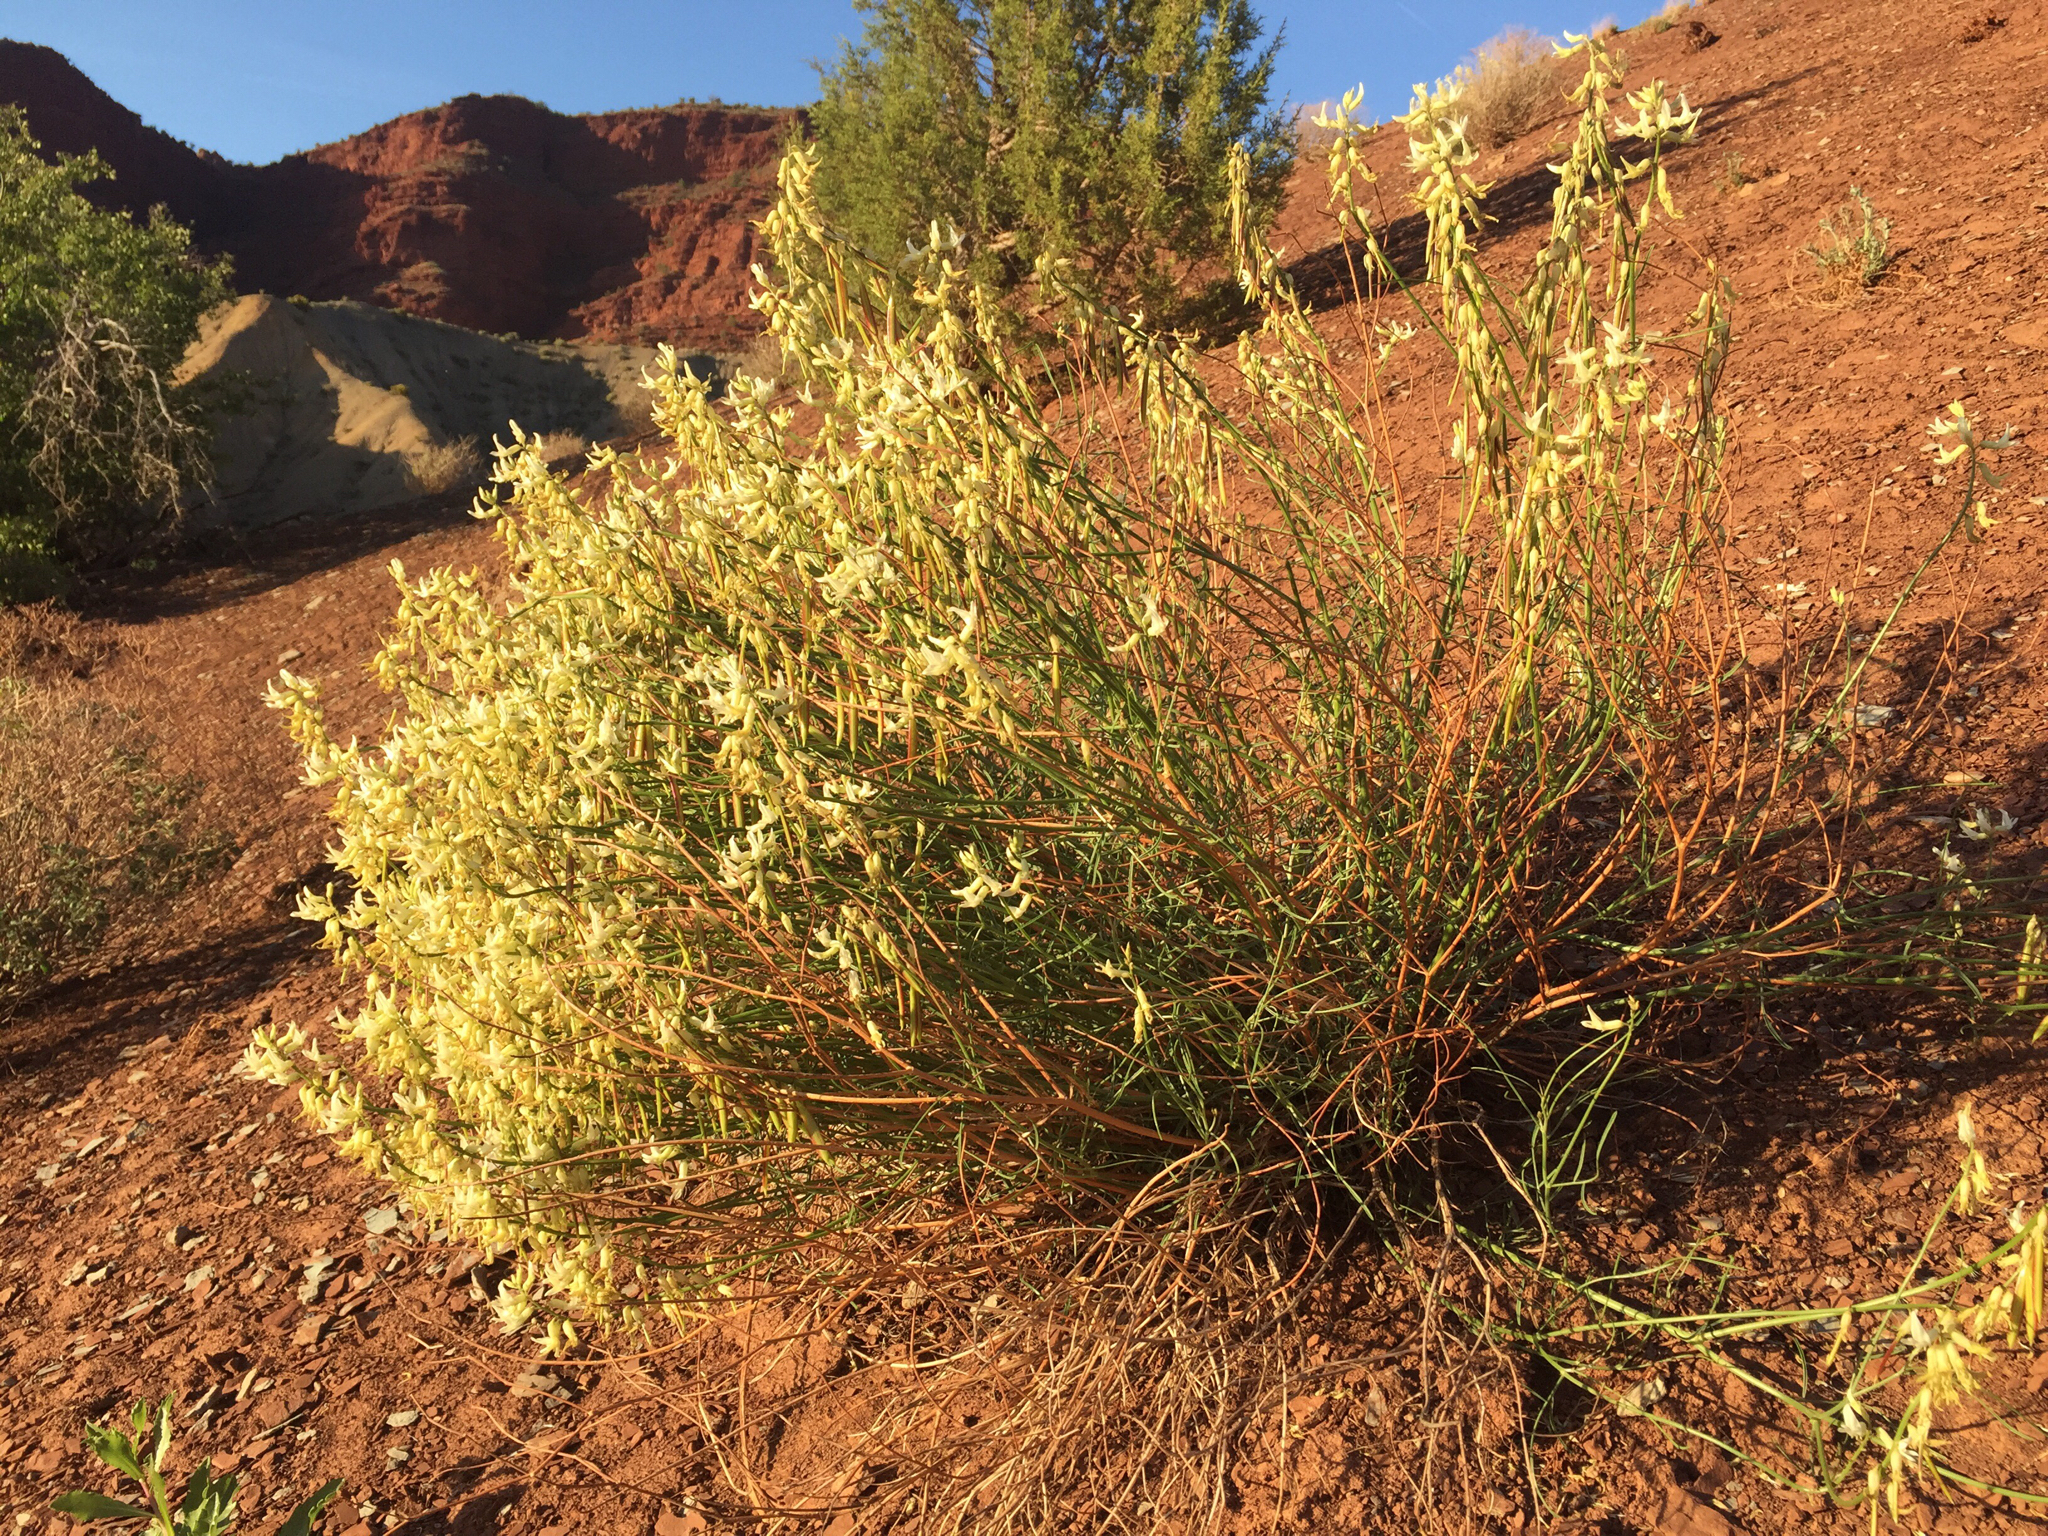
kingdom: Plantae
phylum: Tracheophyta
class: Magnoliopsida
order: Fabales
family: Fabaceae
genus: Astragalus
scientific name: Astragalus lonchocarpus
